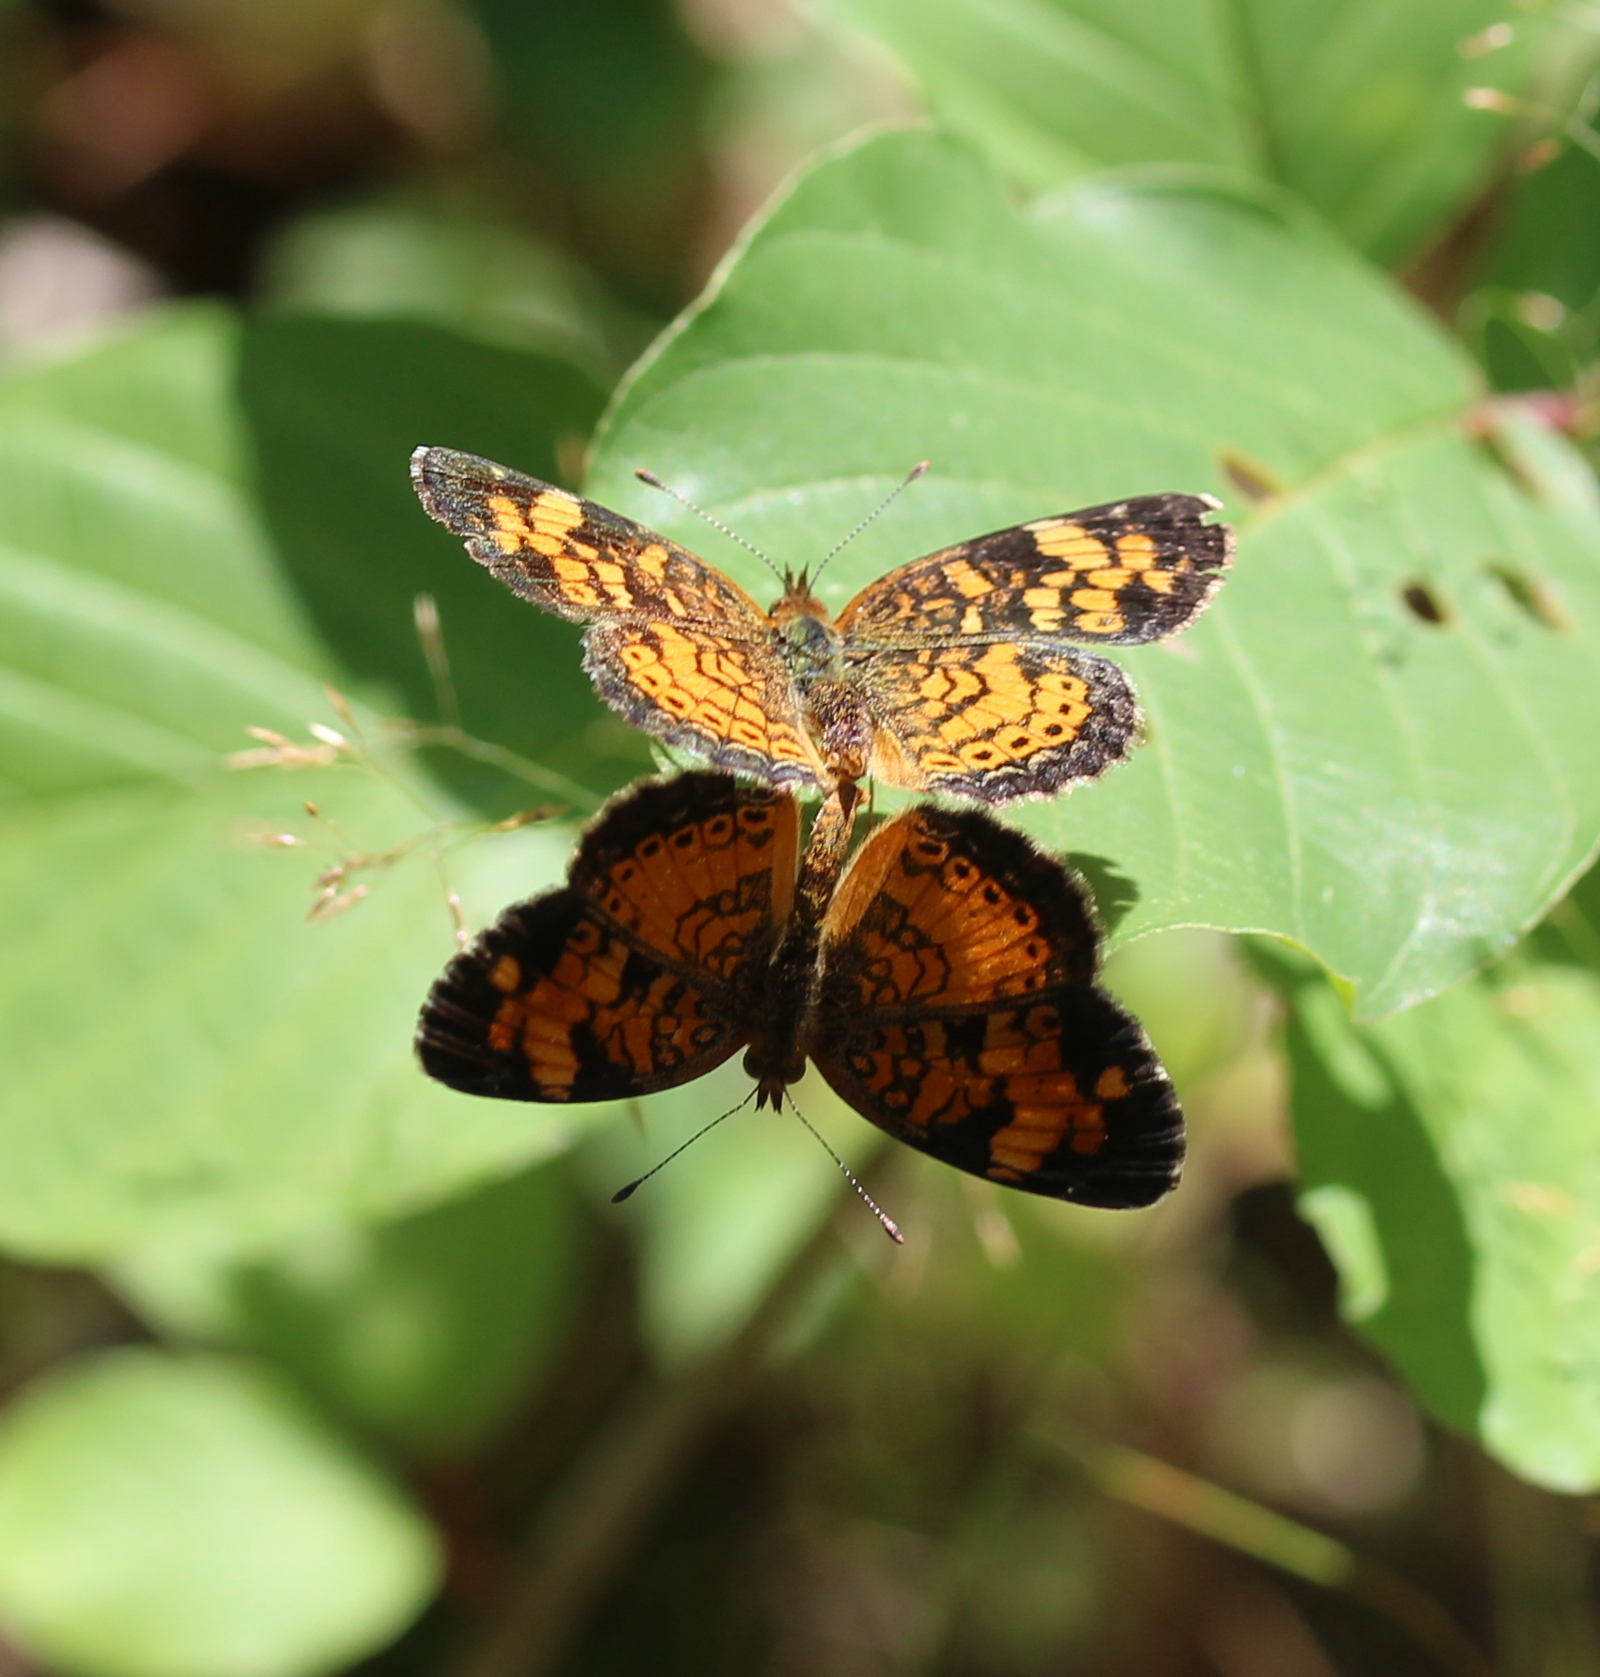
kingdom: Animalia
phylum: Arthropoda
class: Insecta
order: Lepidoptera
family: Nymphalidae
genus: Phyciodes
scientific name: Phyciodes tharos
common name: Pearl crescent
